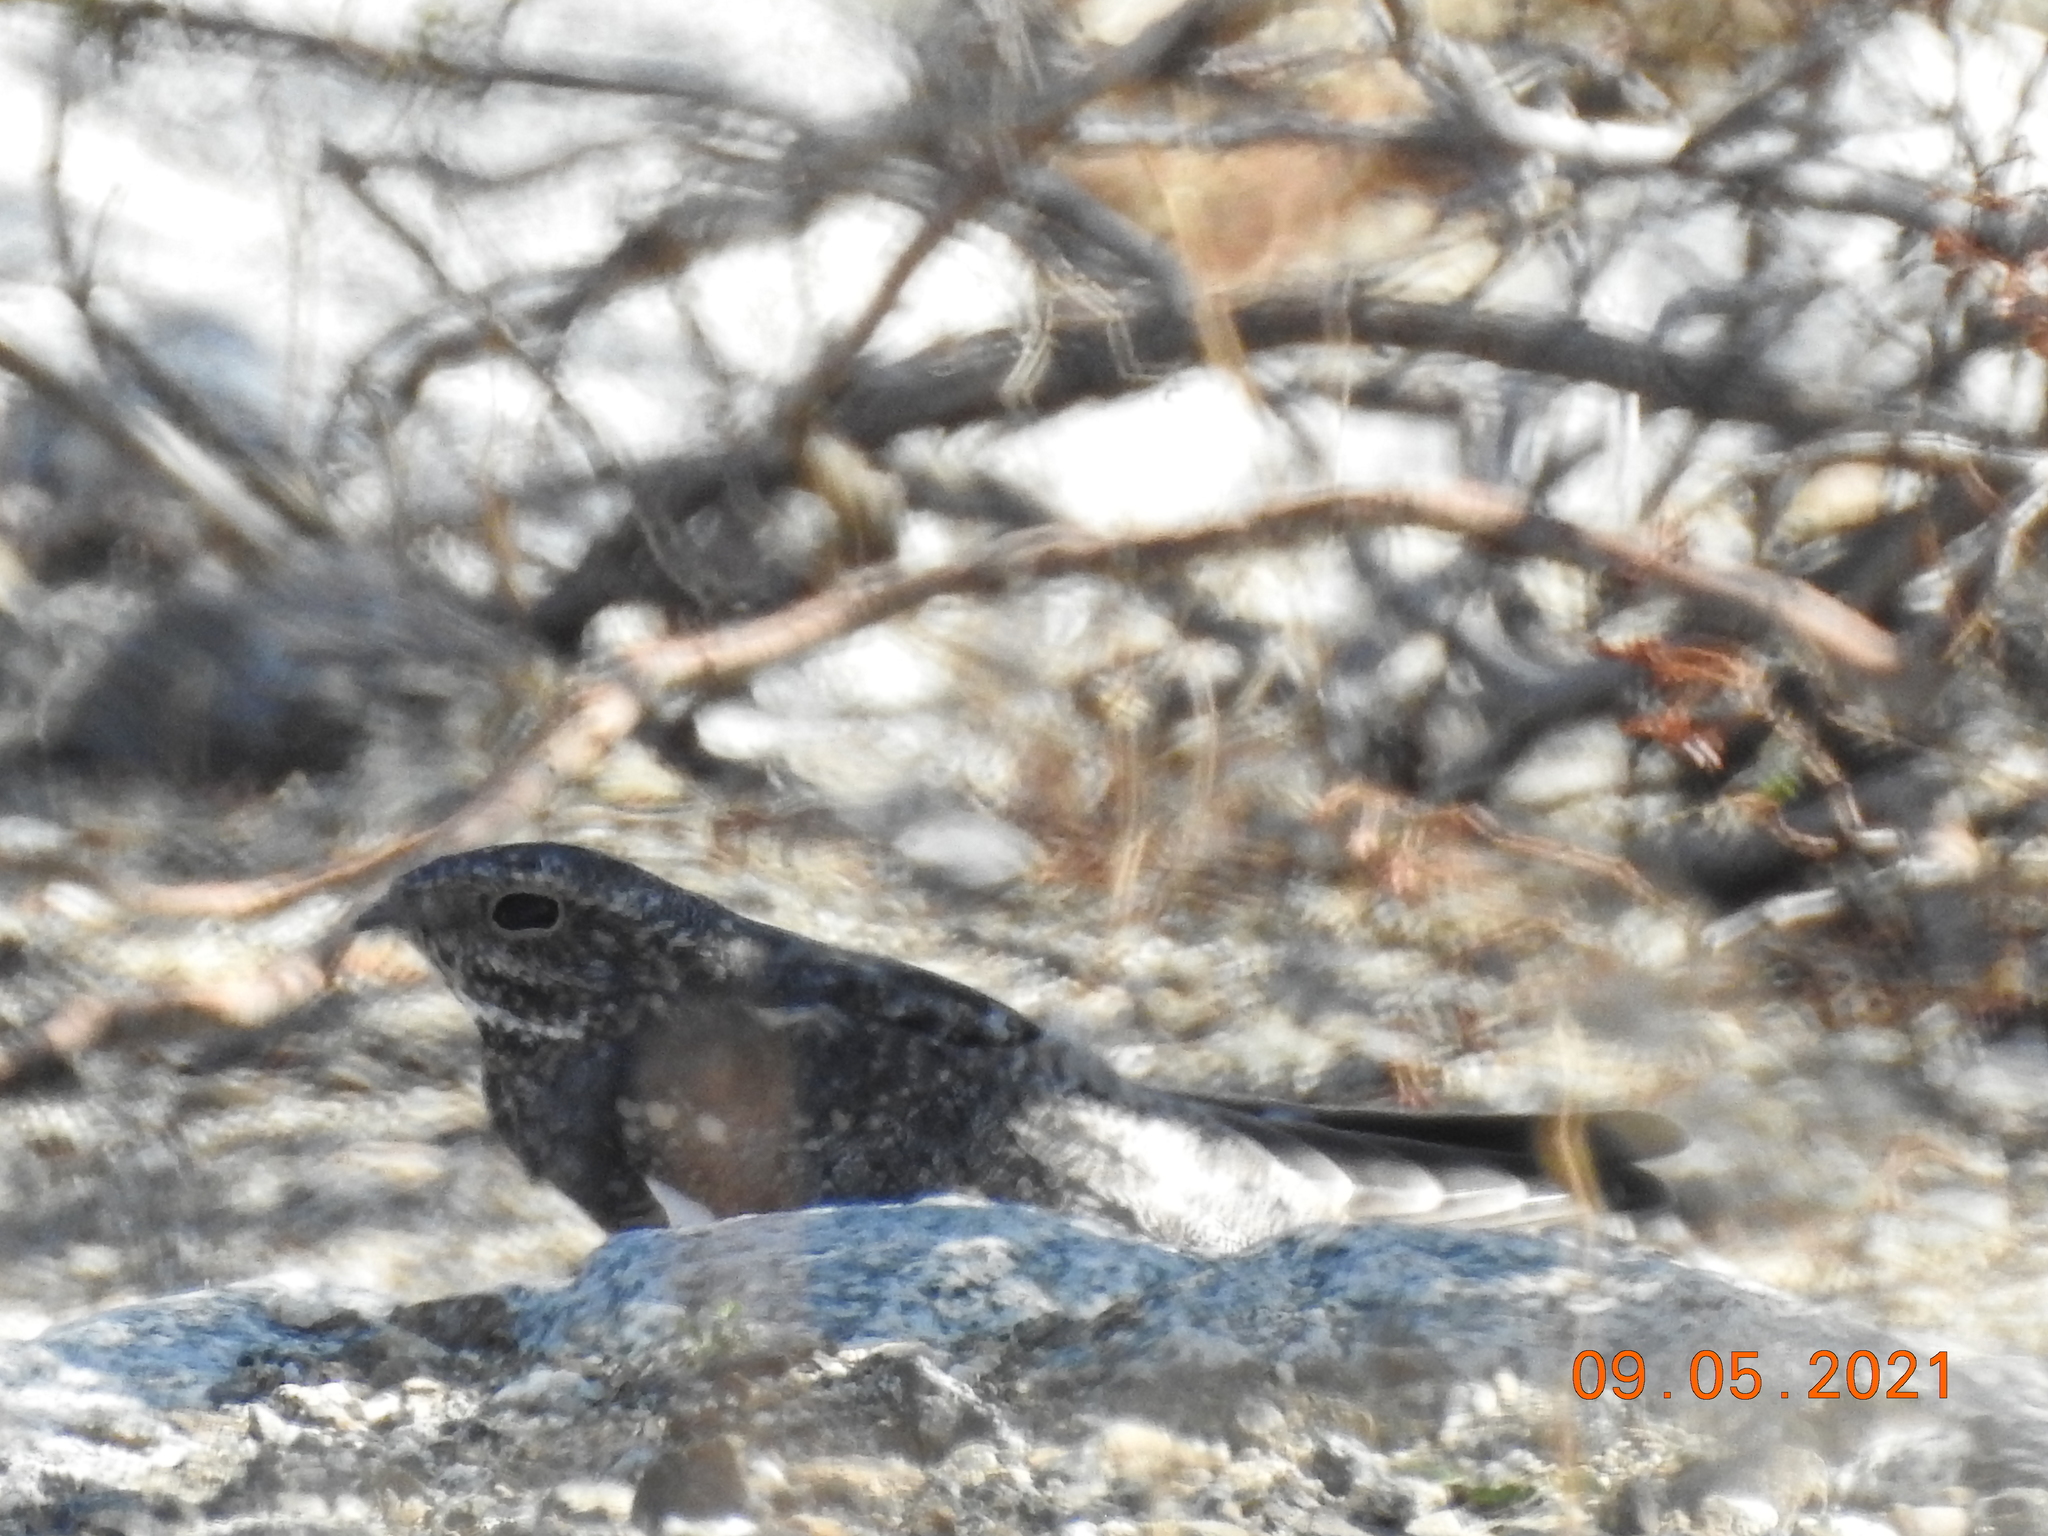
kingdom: Animalia
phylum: Chordata
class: Aves
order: Caprimulgiformes
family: Caprimulgidae
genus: Chordeiles
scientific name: Chordeiles acutipennis
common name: Lesser nighthawk
